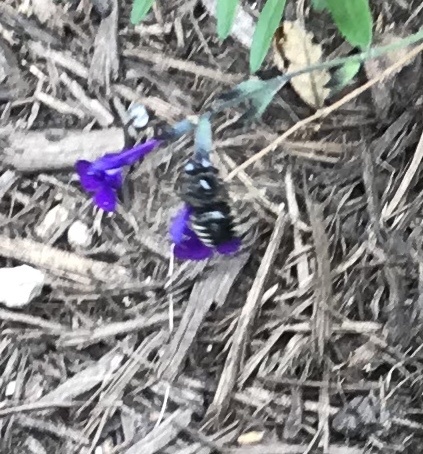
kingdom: Animalia
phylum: Arthropoda
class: Insecta
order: Hymenoptera
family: Apidae
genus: Xylocopa
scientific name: Xylocopa tabaniformis
